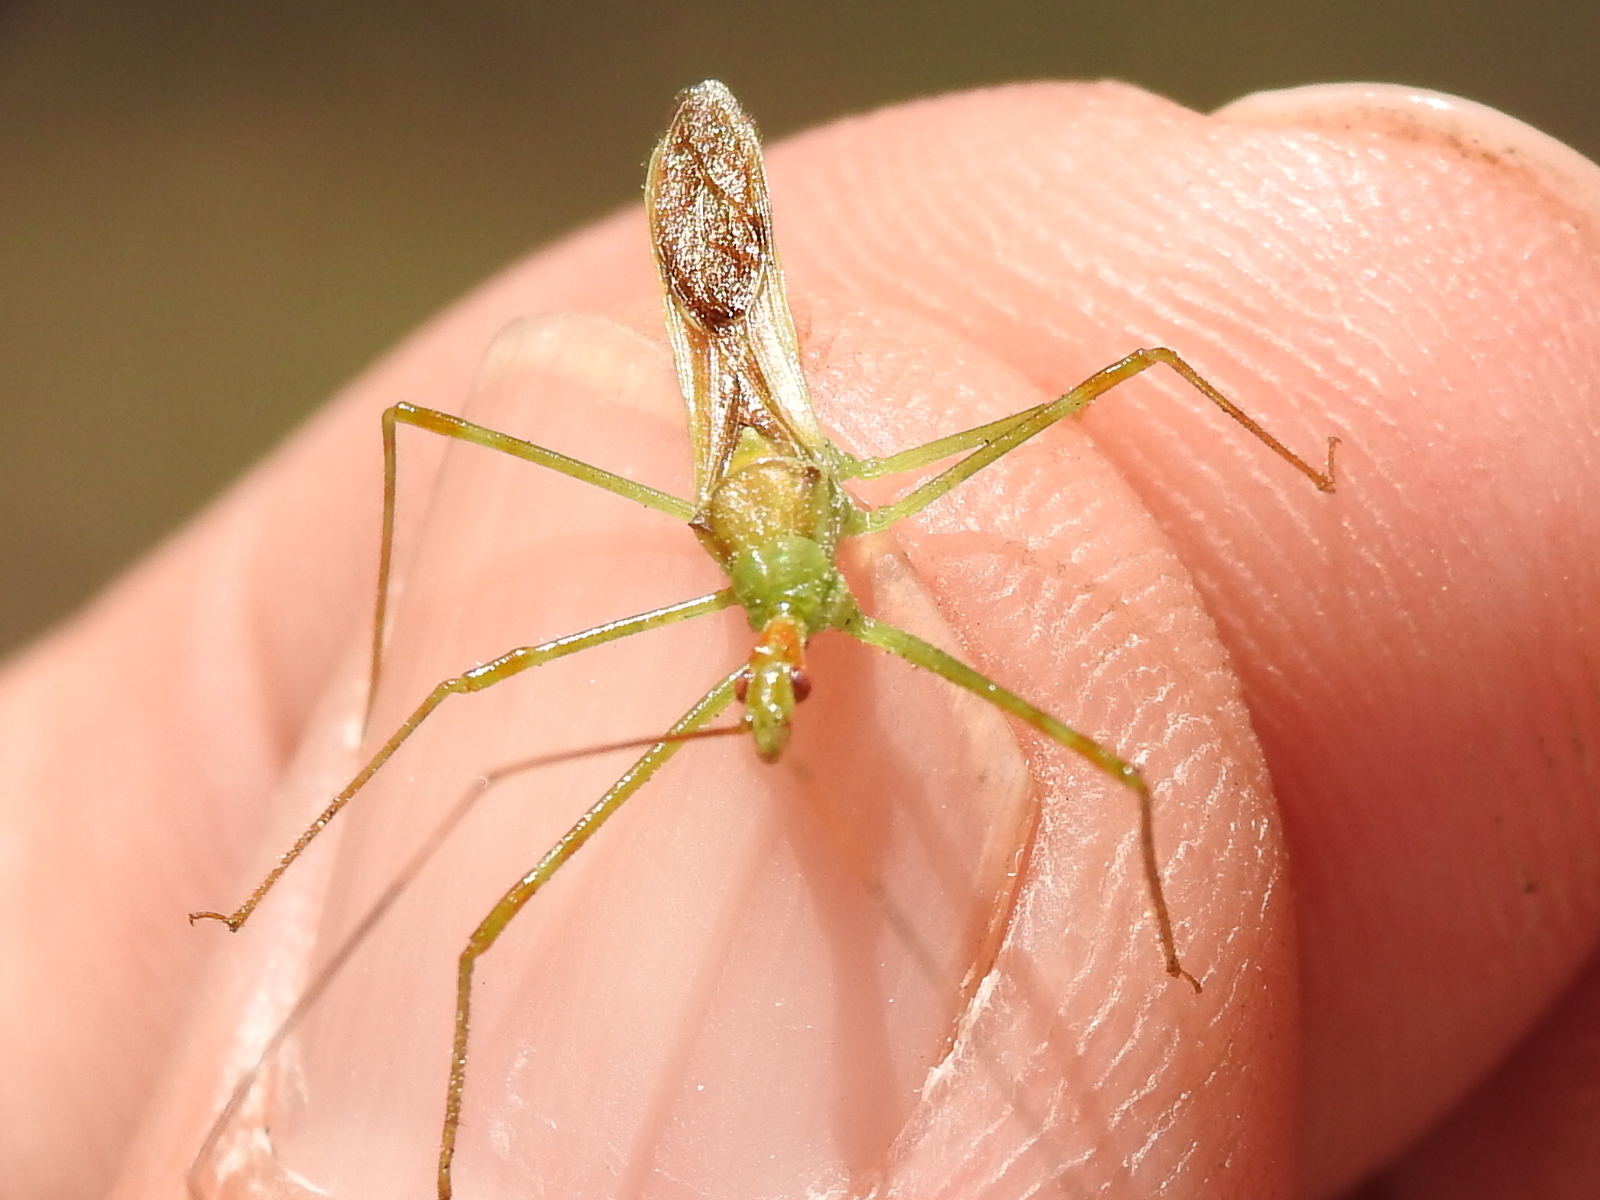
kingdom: Animalia
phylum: Arthropoda
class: Insecta
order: Hemiptera
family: Reduviidae
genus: Zelus
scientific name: Zelus luridus
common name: Pale green assassin bug
